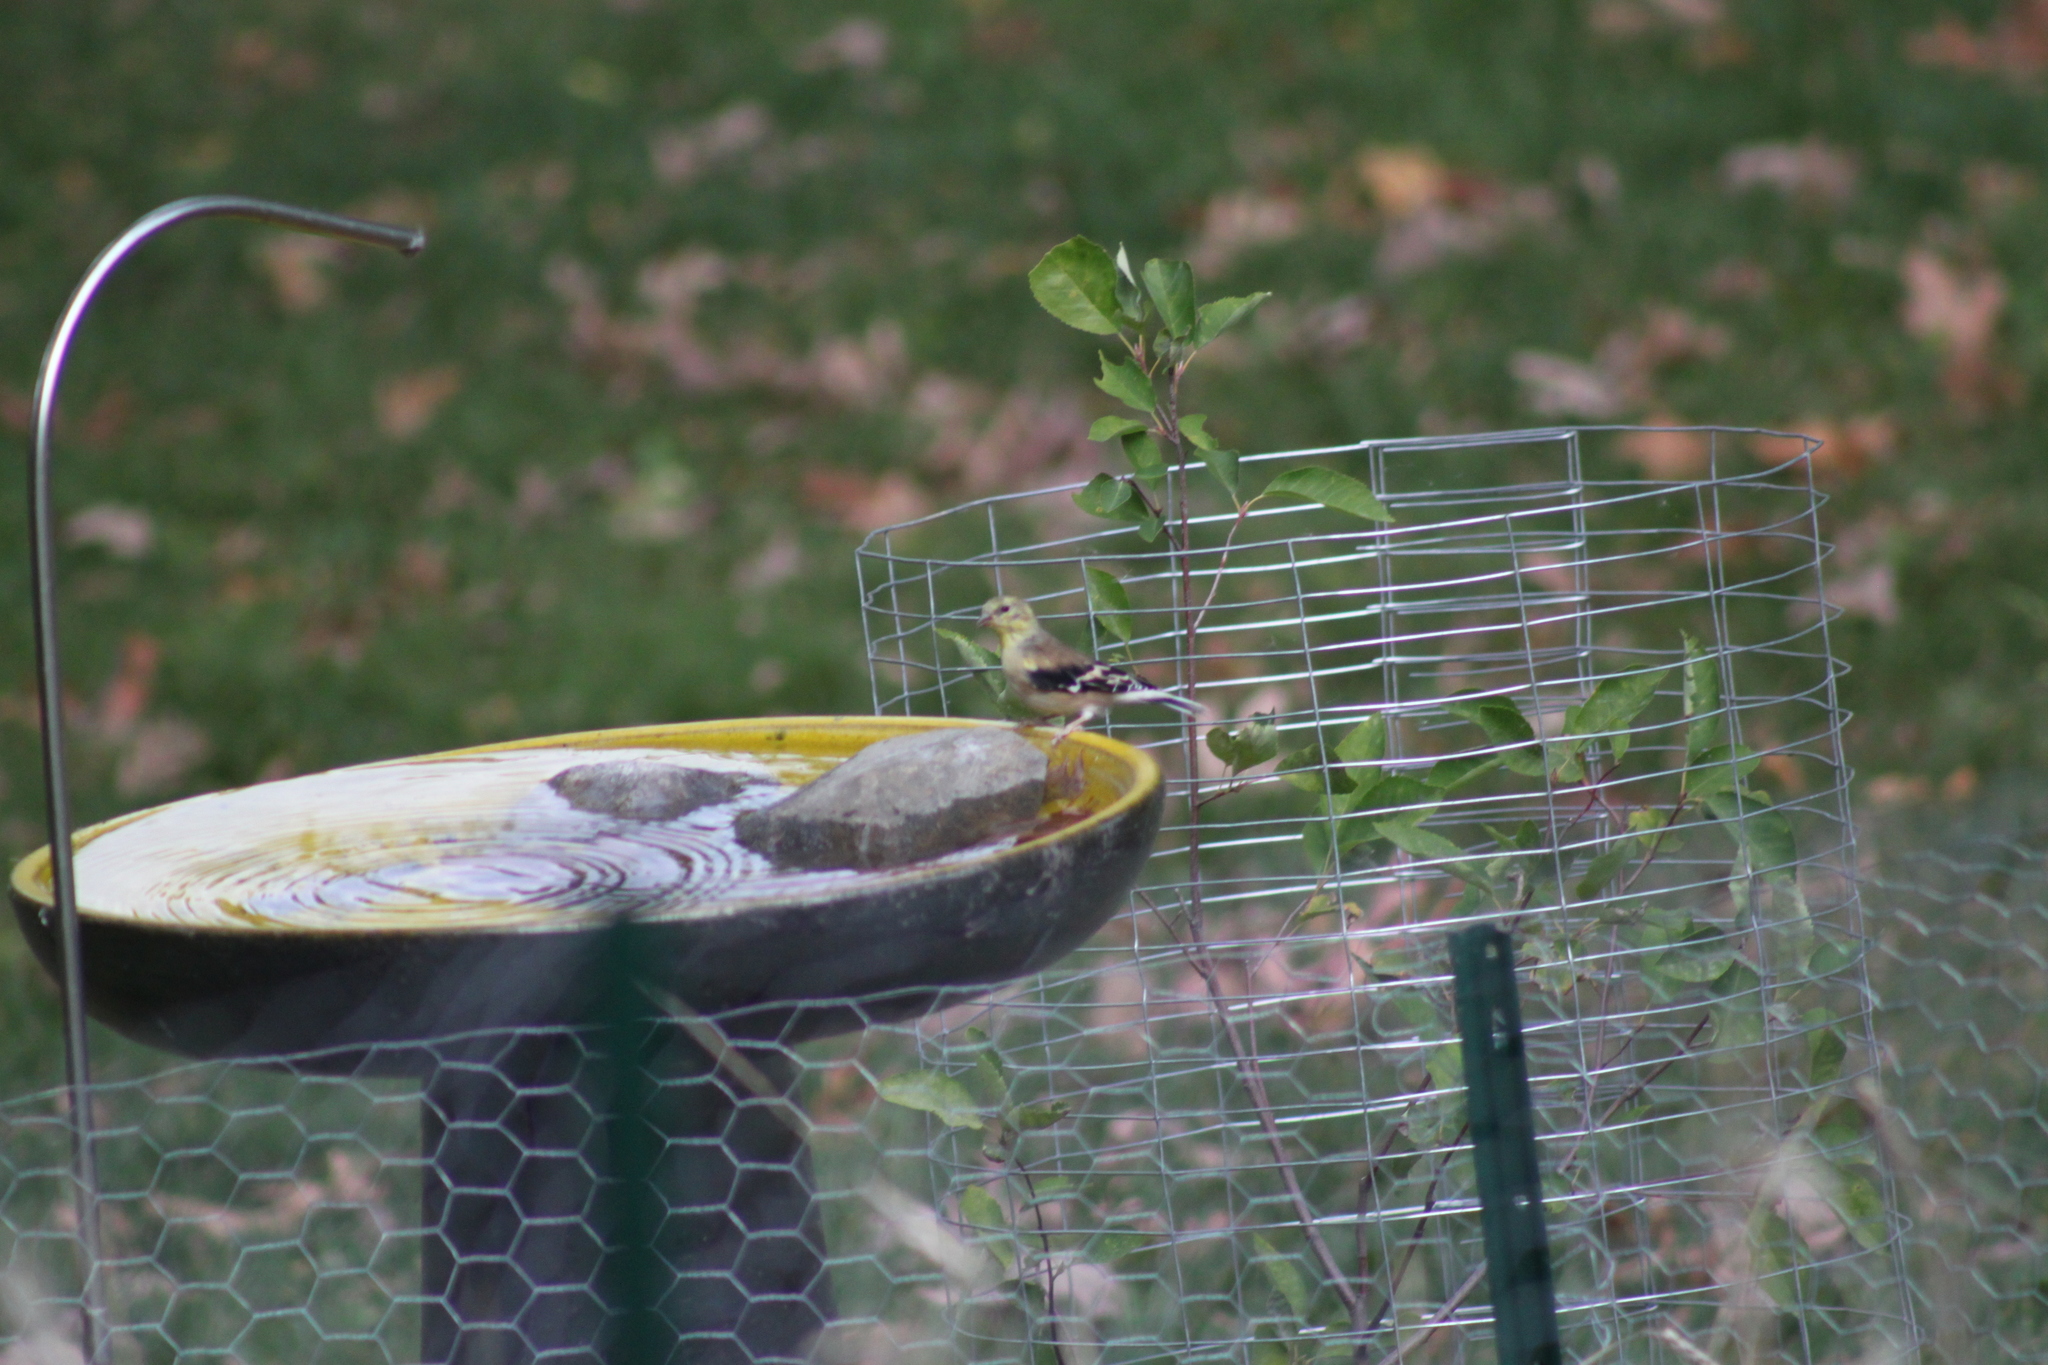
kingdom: Animalia
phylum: Chordata
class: Aves
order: Passeriformes
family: Fringillidae
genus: Spinus
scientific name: Spinus tristis
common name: American goldfinch
